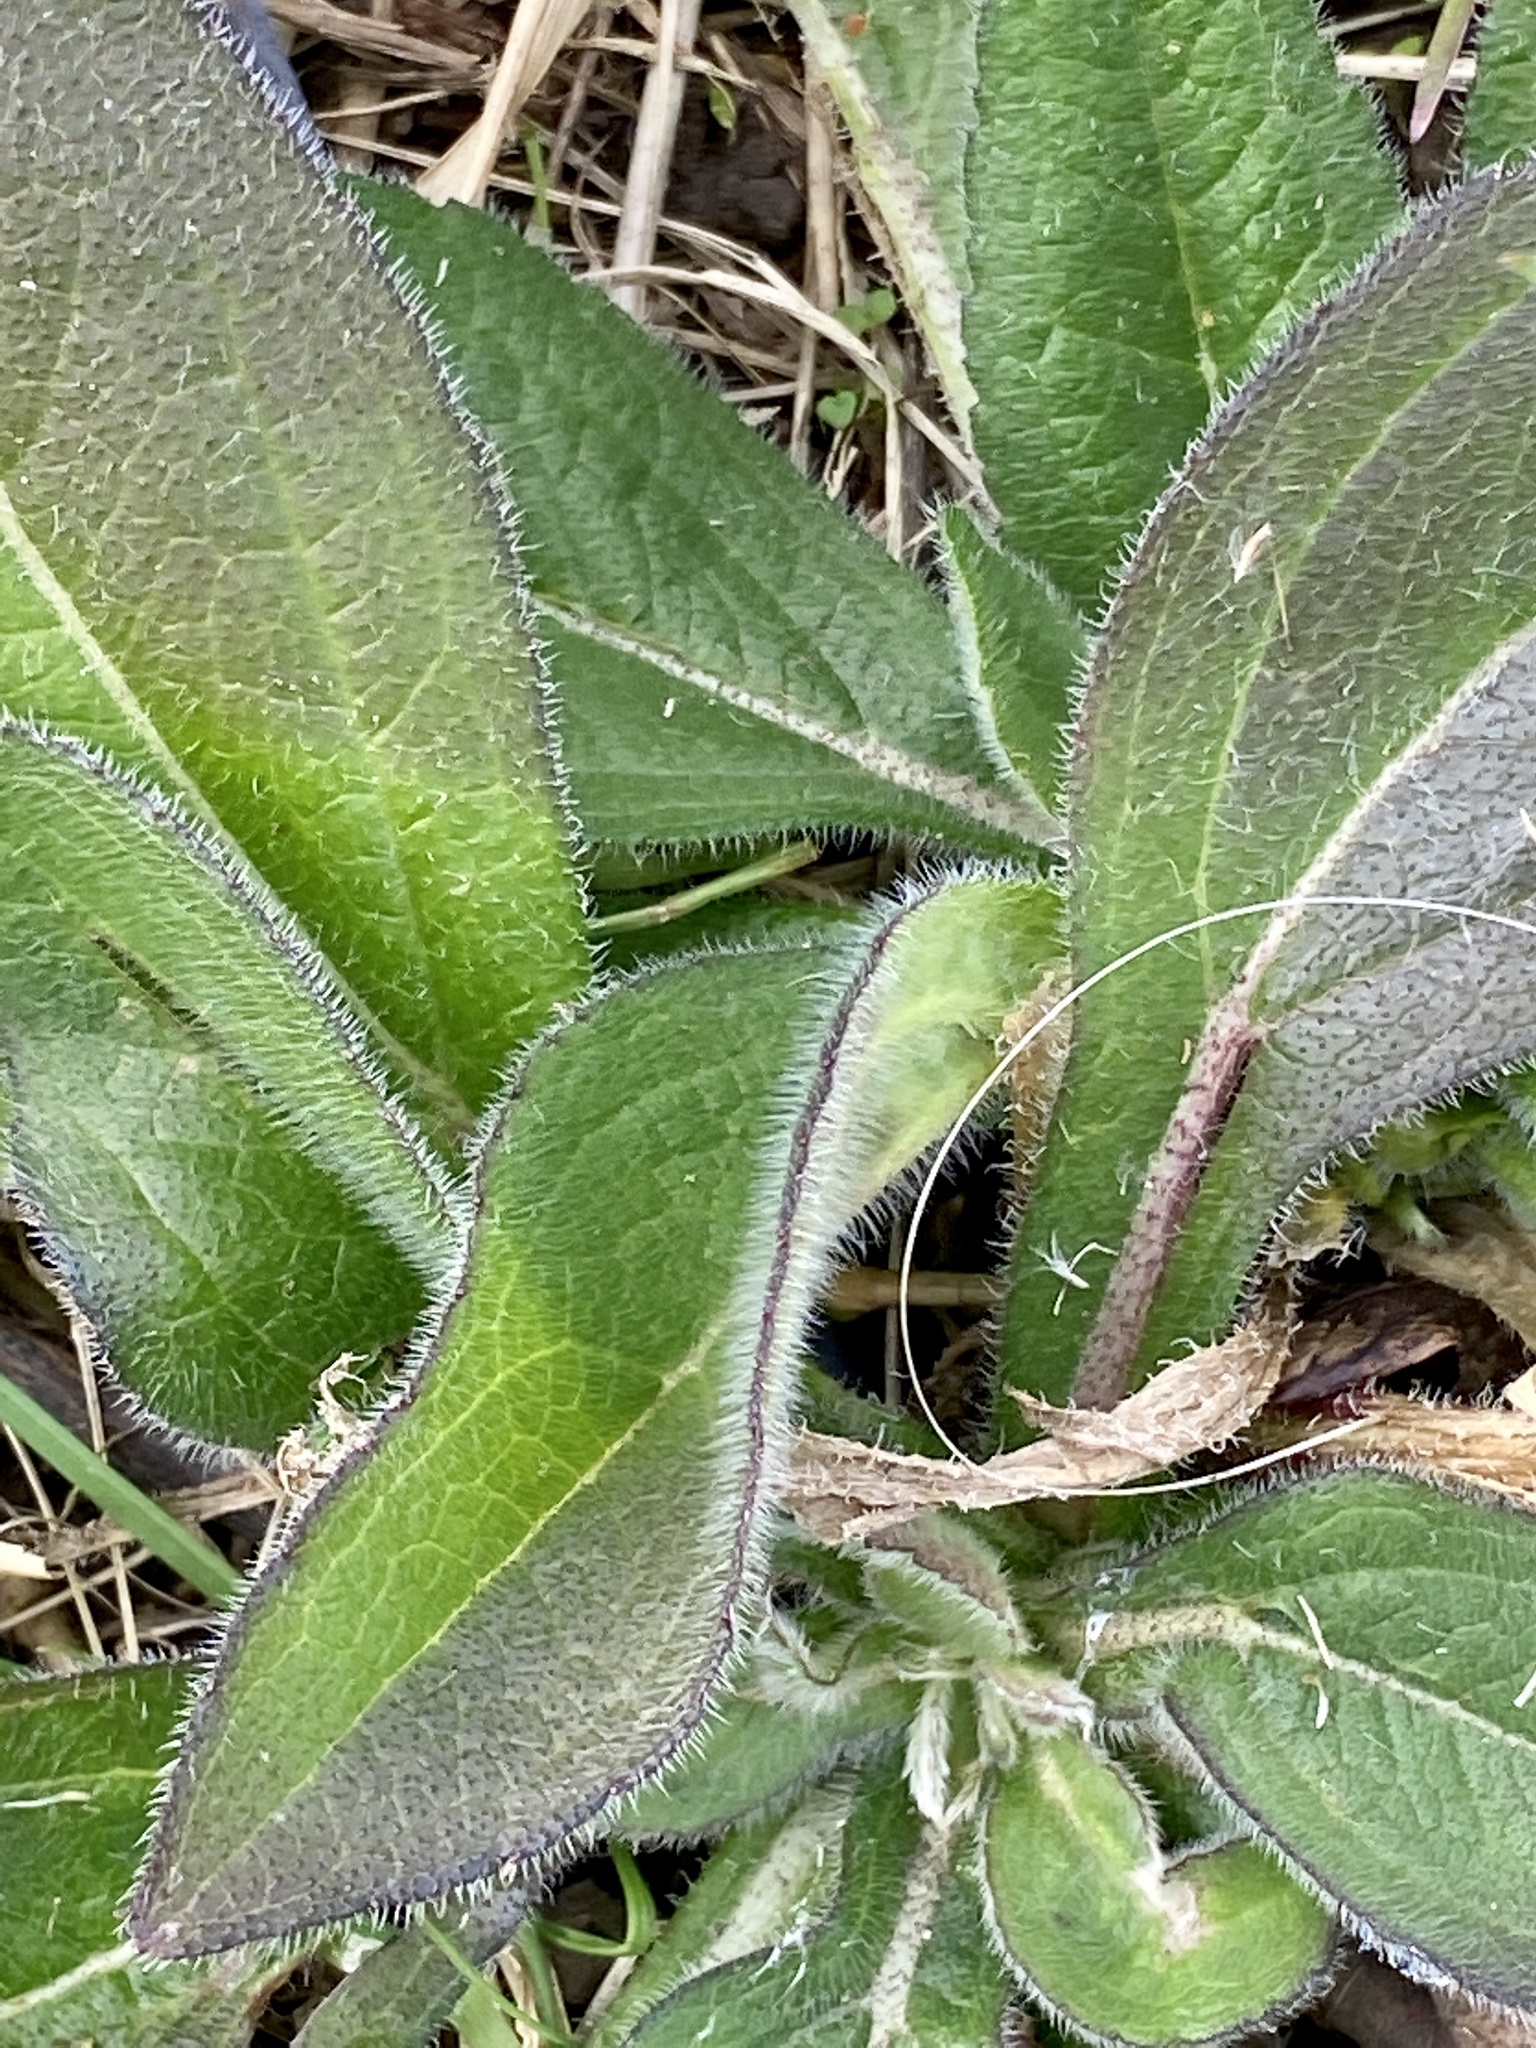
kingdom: Plantae
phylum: Tracheophyta
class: Magnoliopsida
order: Asterales
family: Asteraceae
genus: Rudbeckia
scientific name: Rudbeckia hirta
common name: Black-eyed-susan
